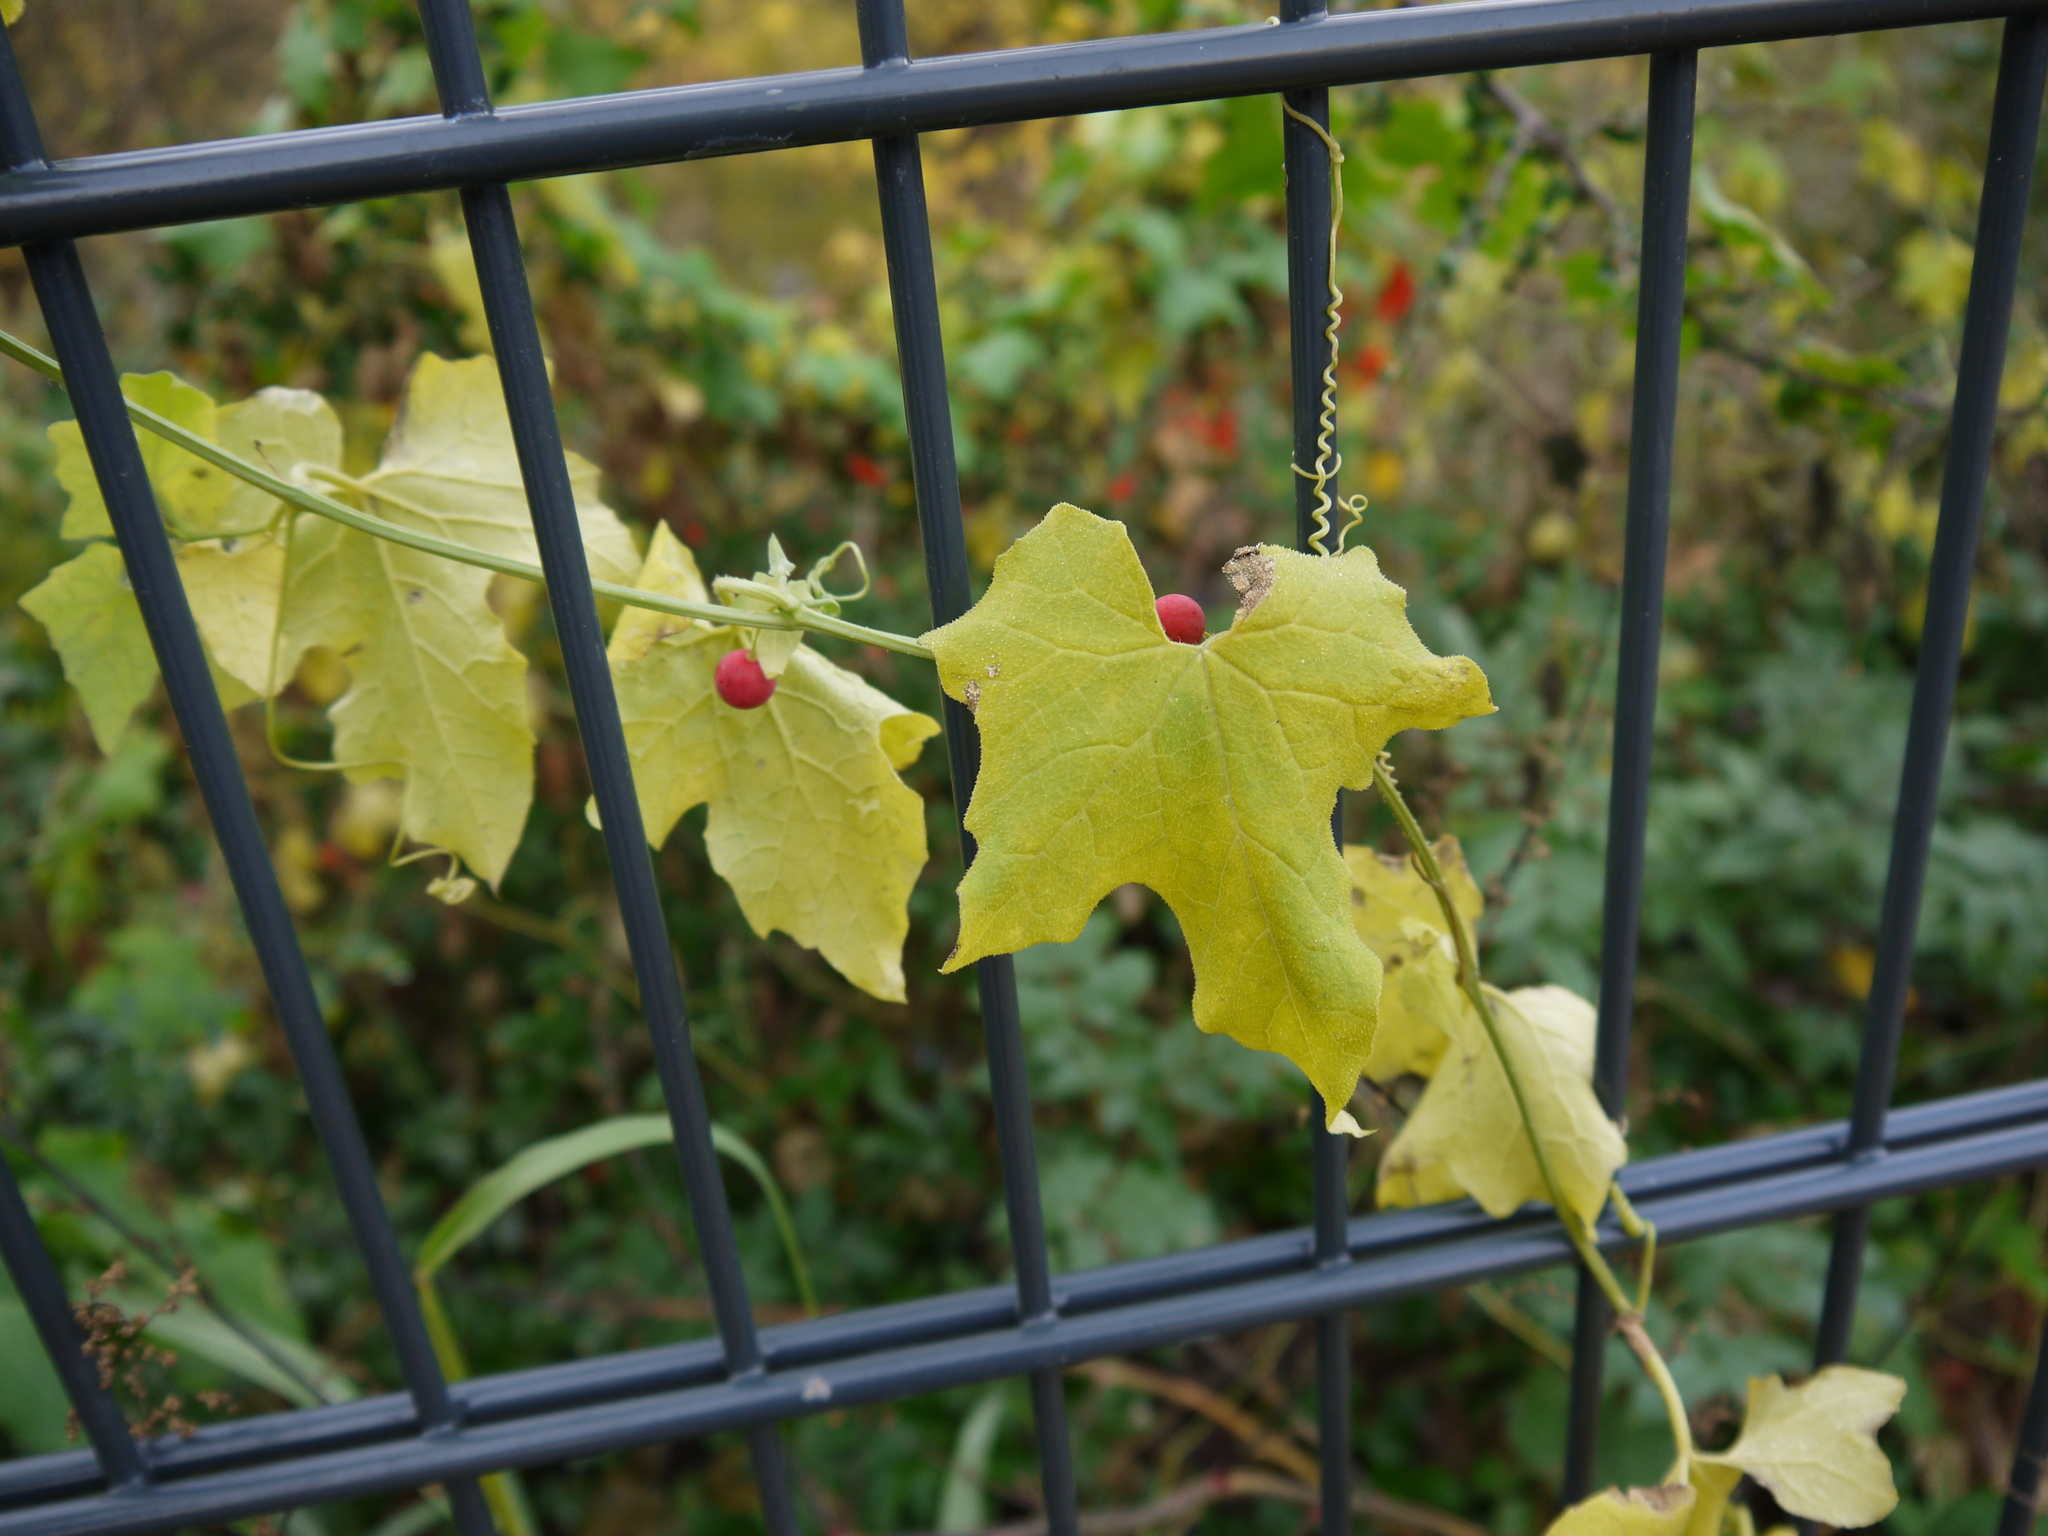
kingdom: Plantae
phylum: Tracheophyta
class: Magnoliopsida
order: Cucurbitales
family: Cucurbitaceae
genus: Bryonia
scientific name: Bryonia dioica
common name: White bryony
